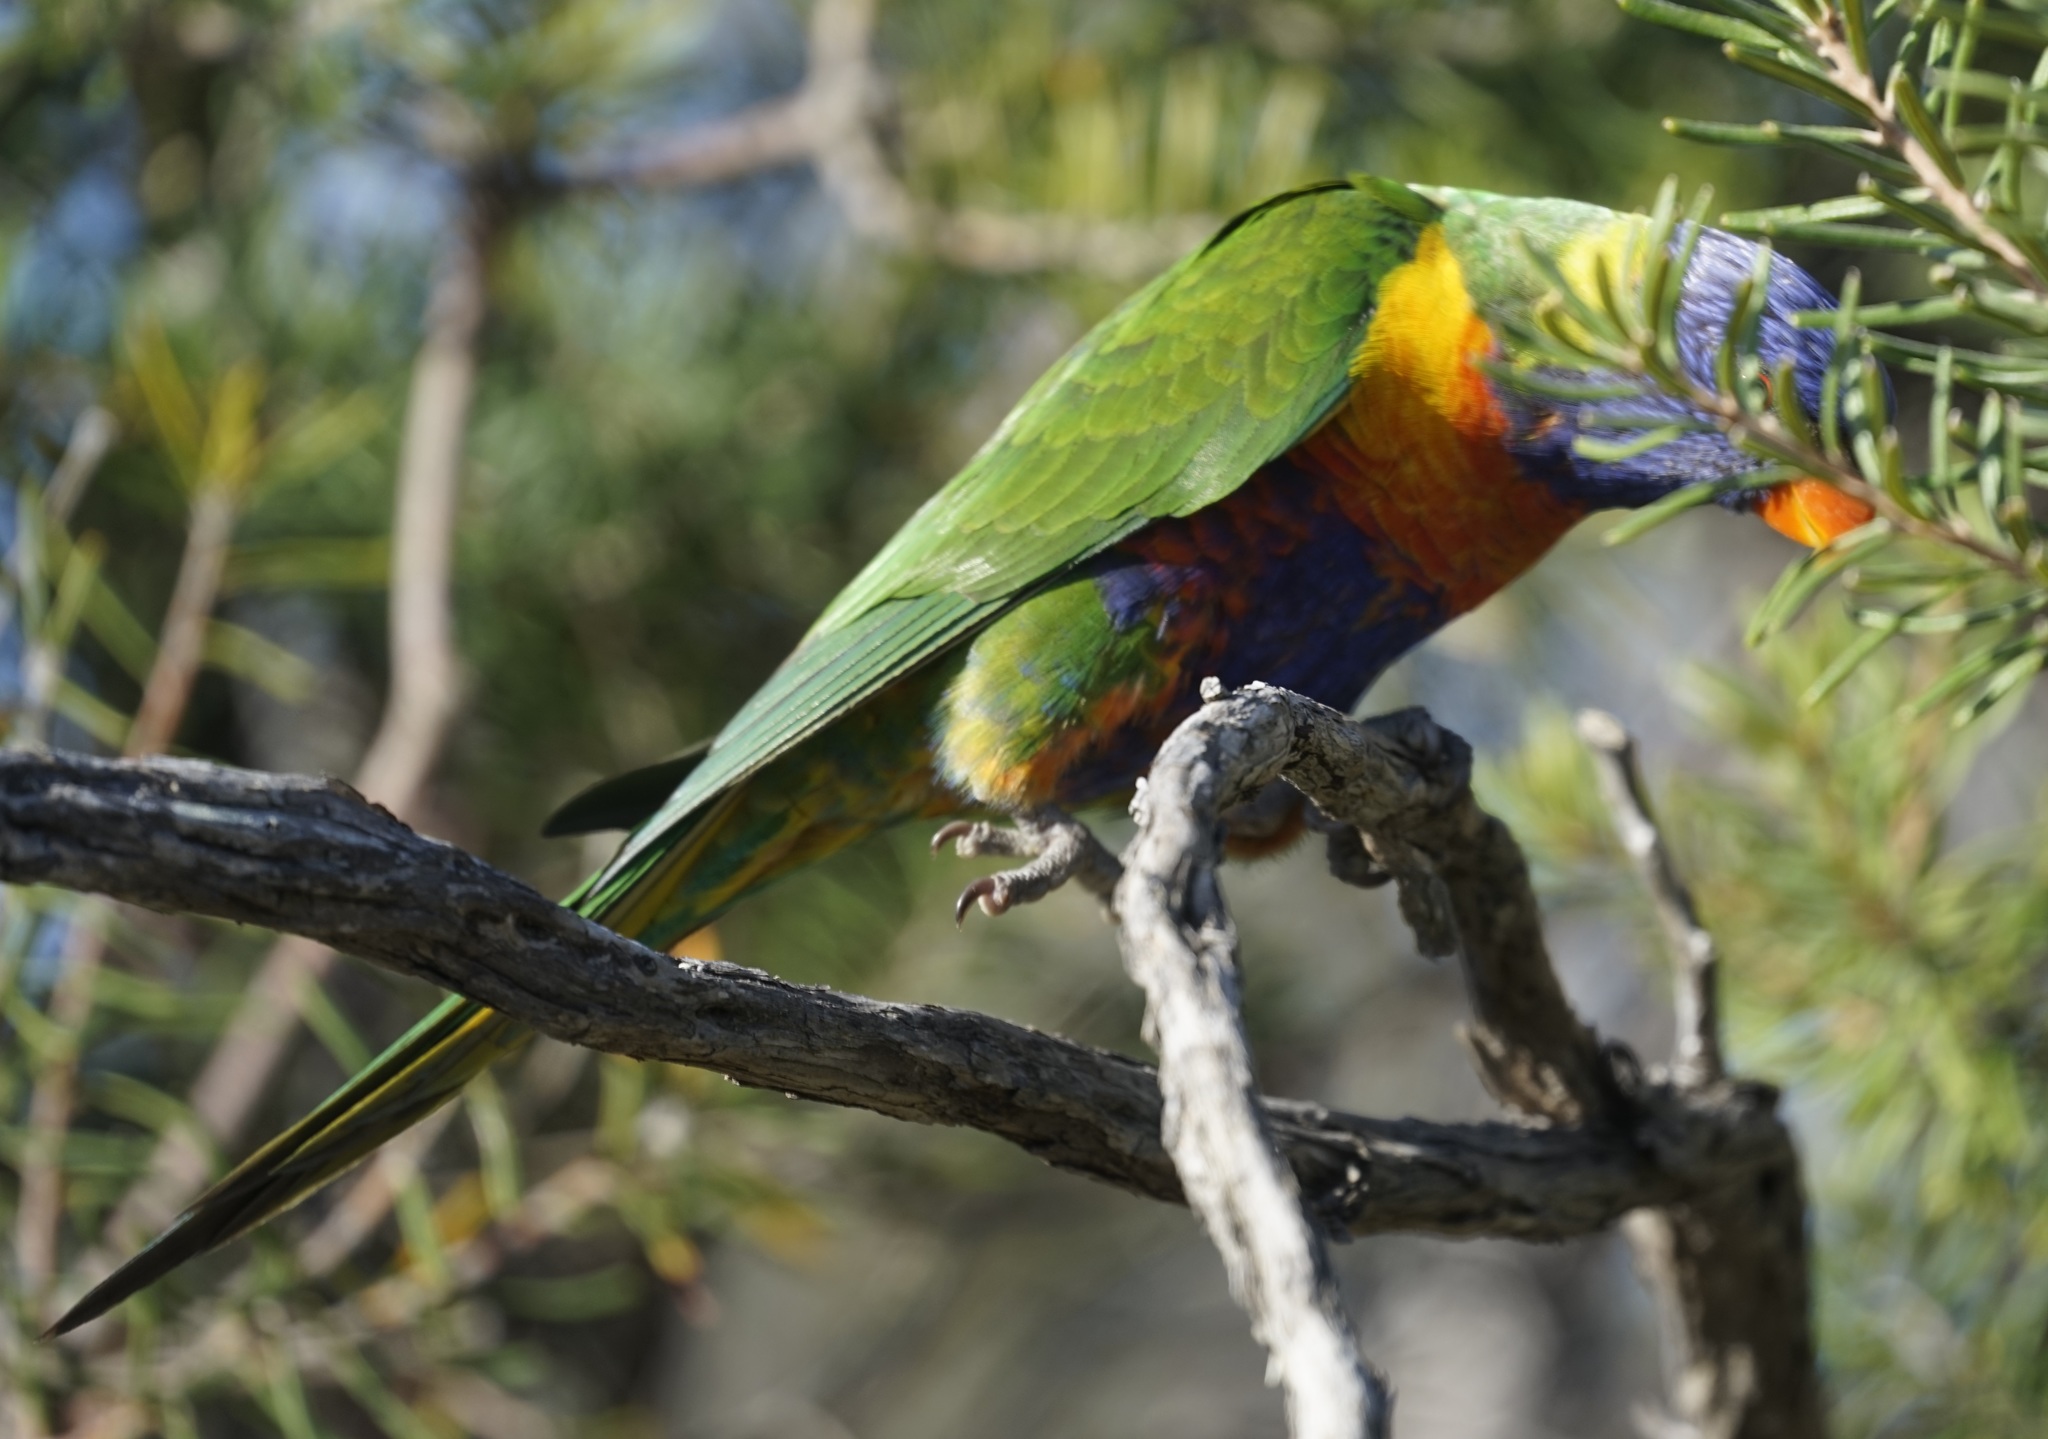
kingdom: Animalia
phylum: Chordata
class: Aves
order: Psittaciformes
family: Psittacidae
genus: Trichoglossus
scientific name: Trichoglossus haematodus
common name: Coconut lorikeet
